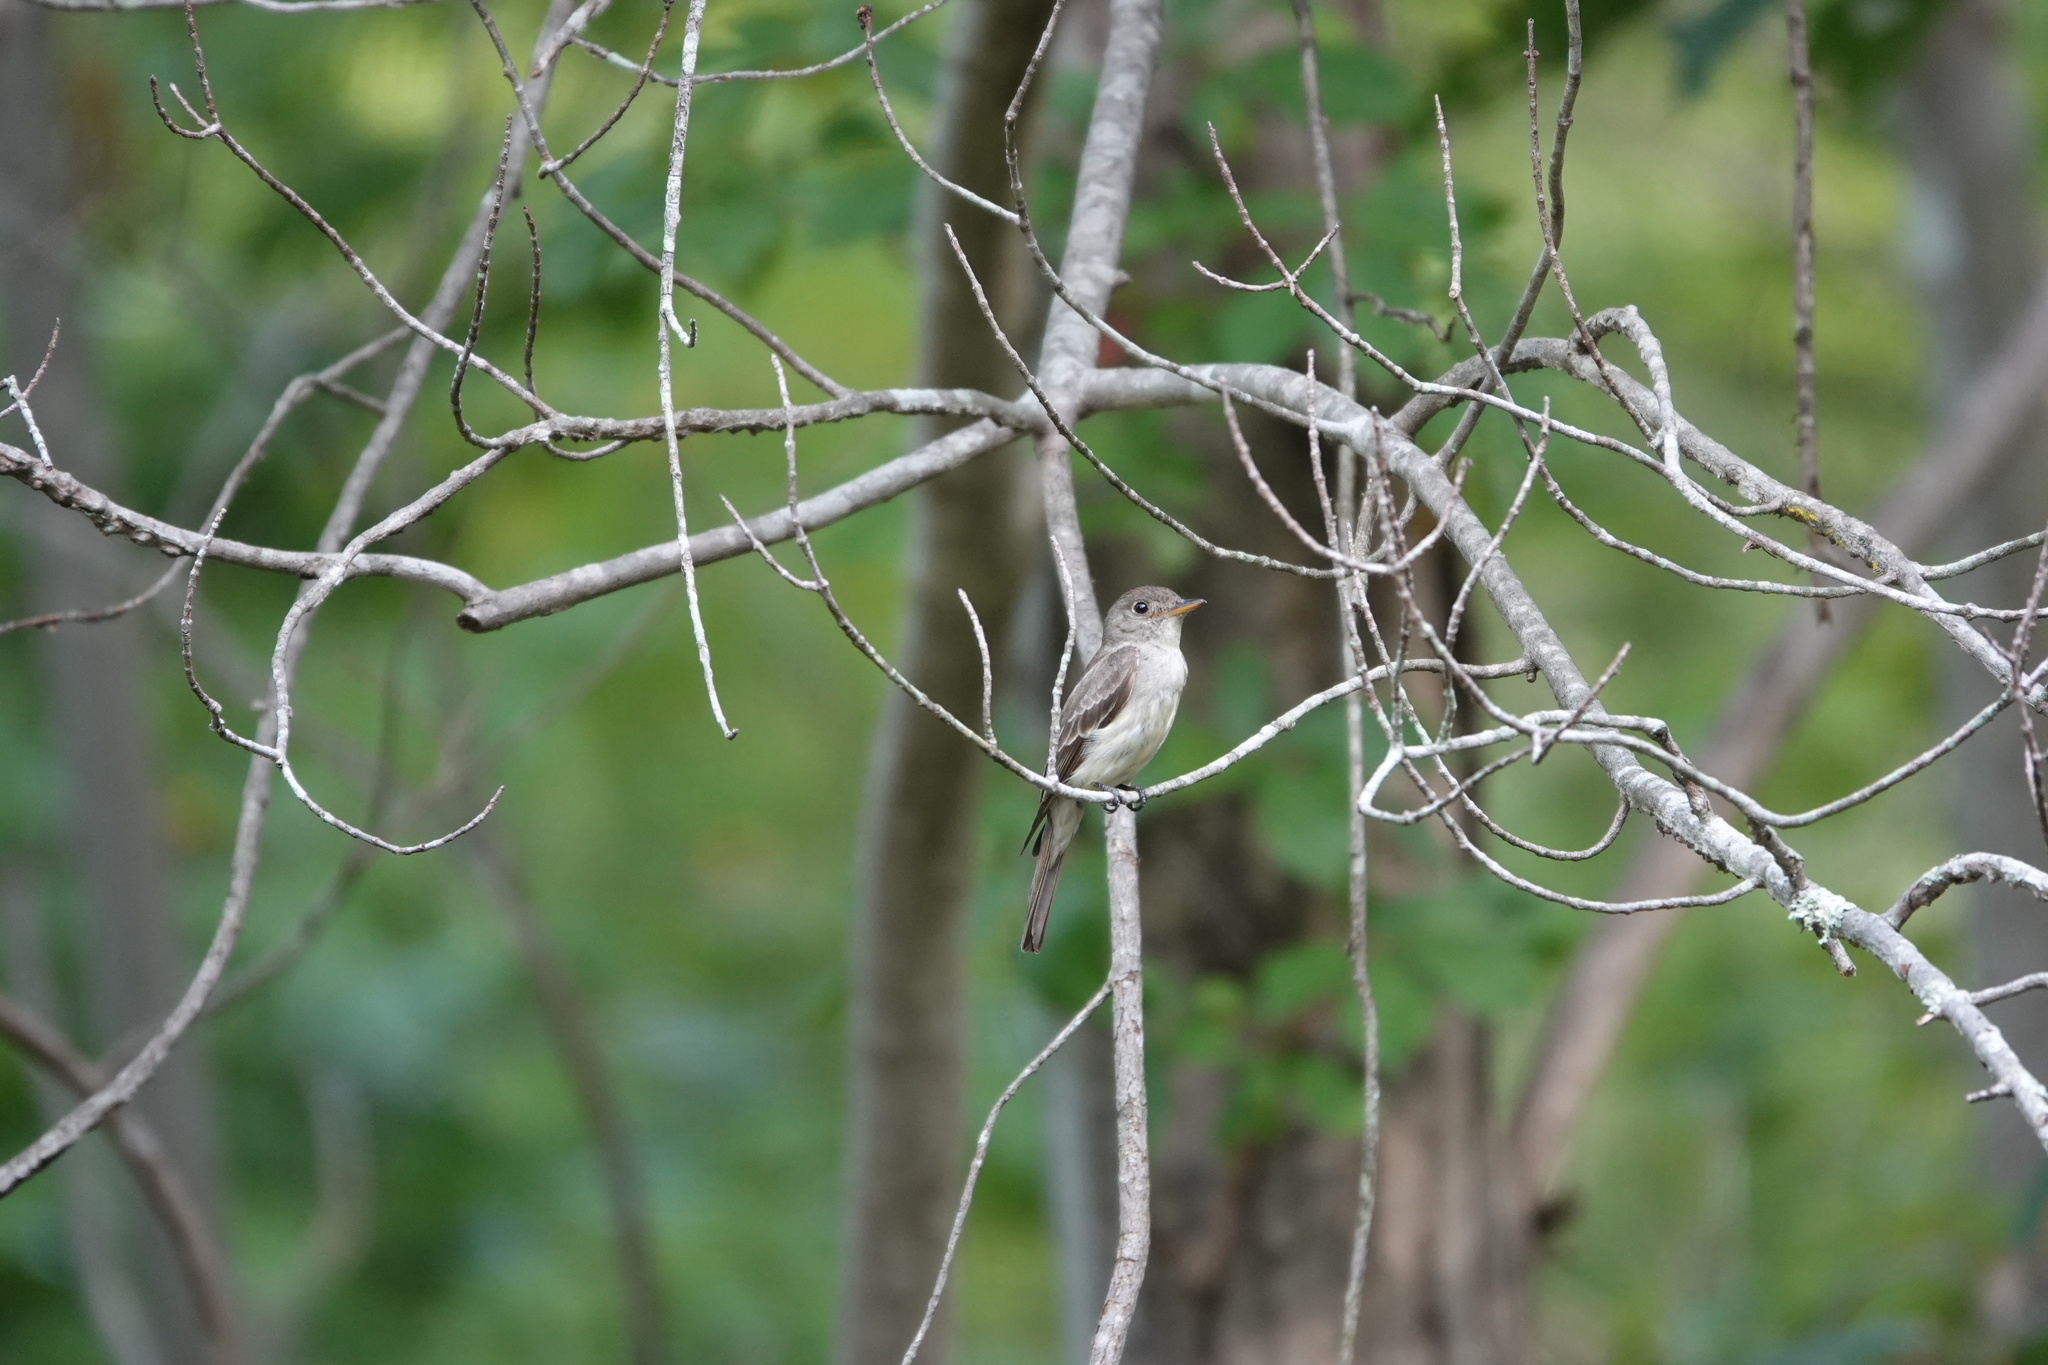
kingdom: Animalia
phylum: Chordata
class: Aves
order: Passeriformes
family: Tyrannidae
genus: Contopus
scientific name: Contopus virens
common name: Eastern wood-pewee
